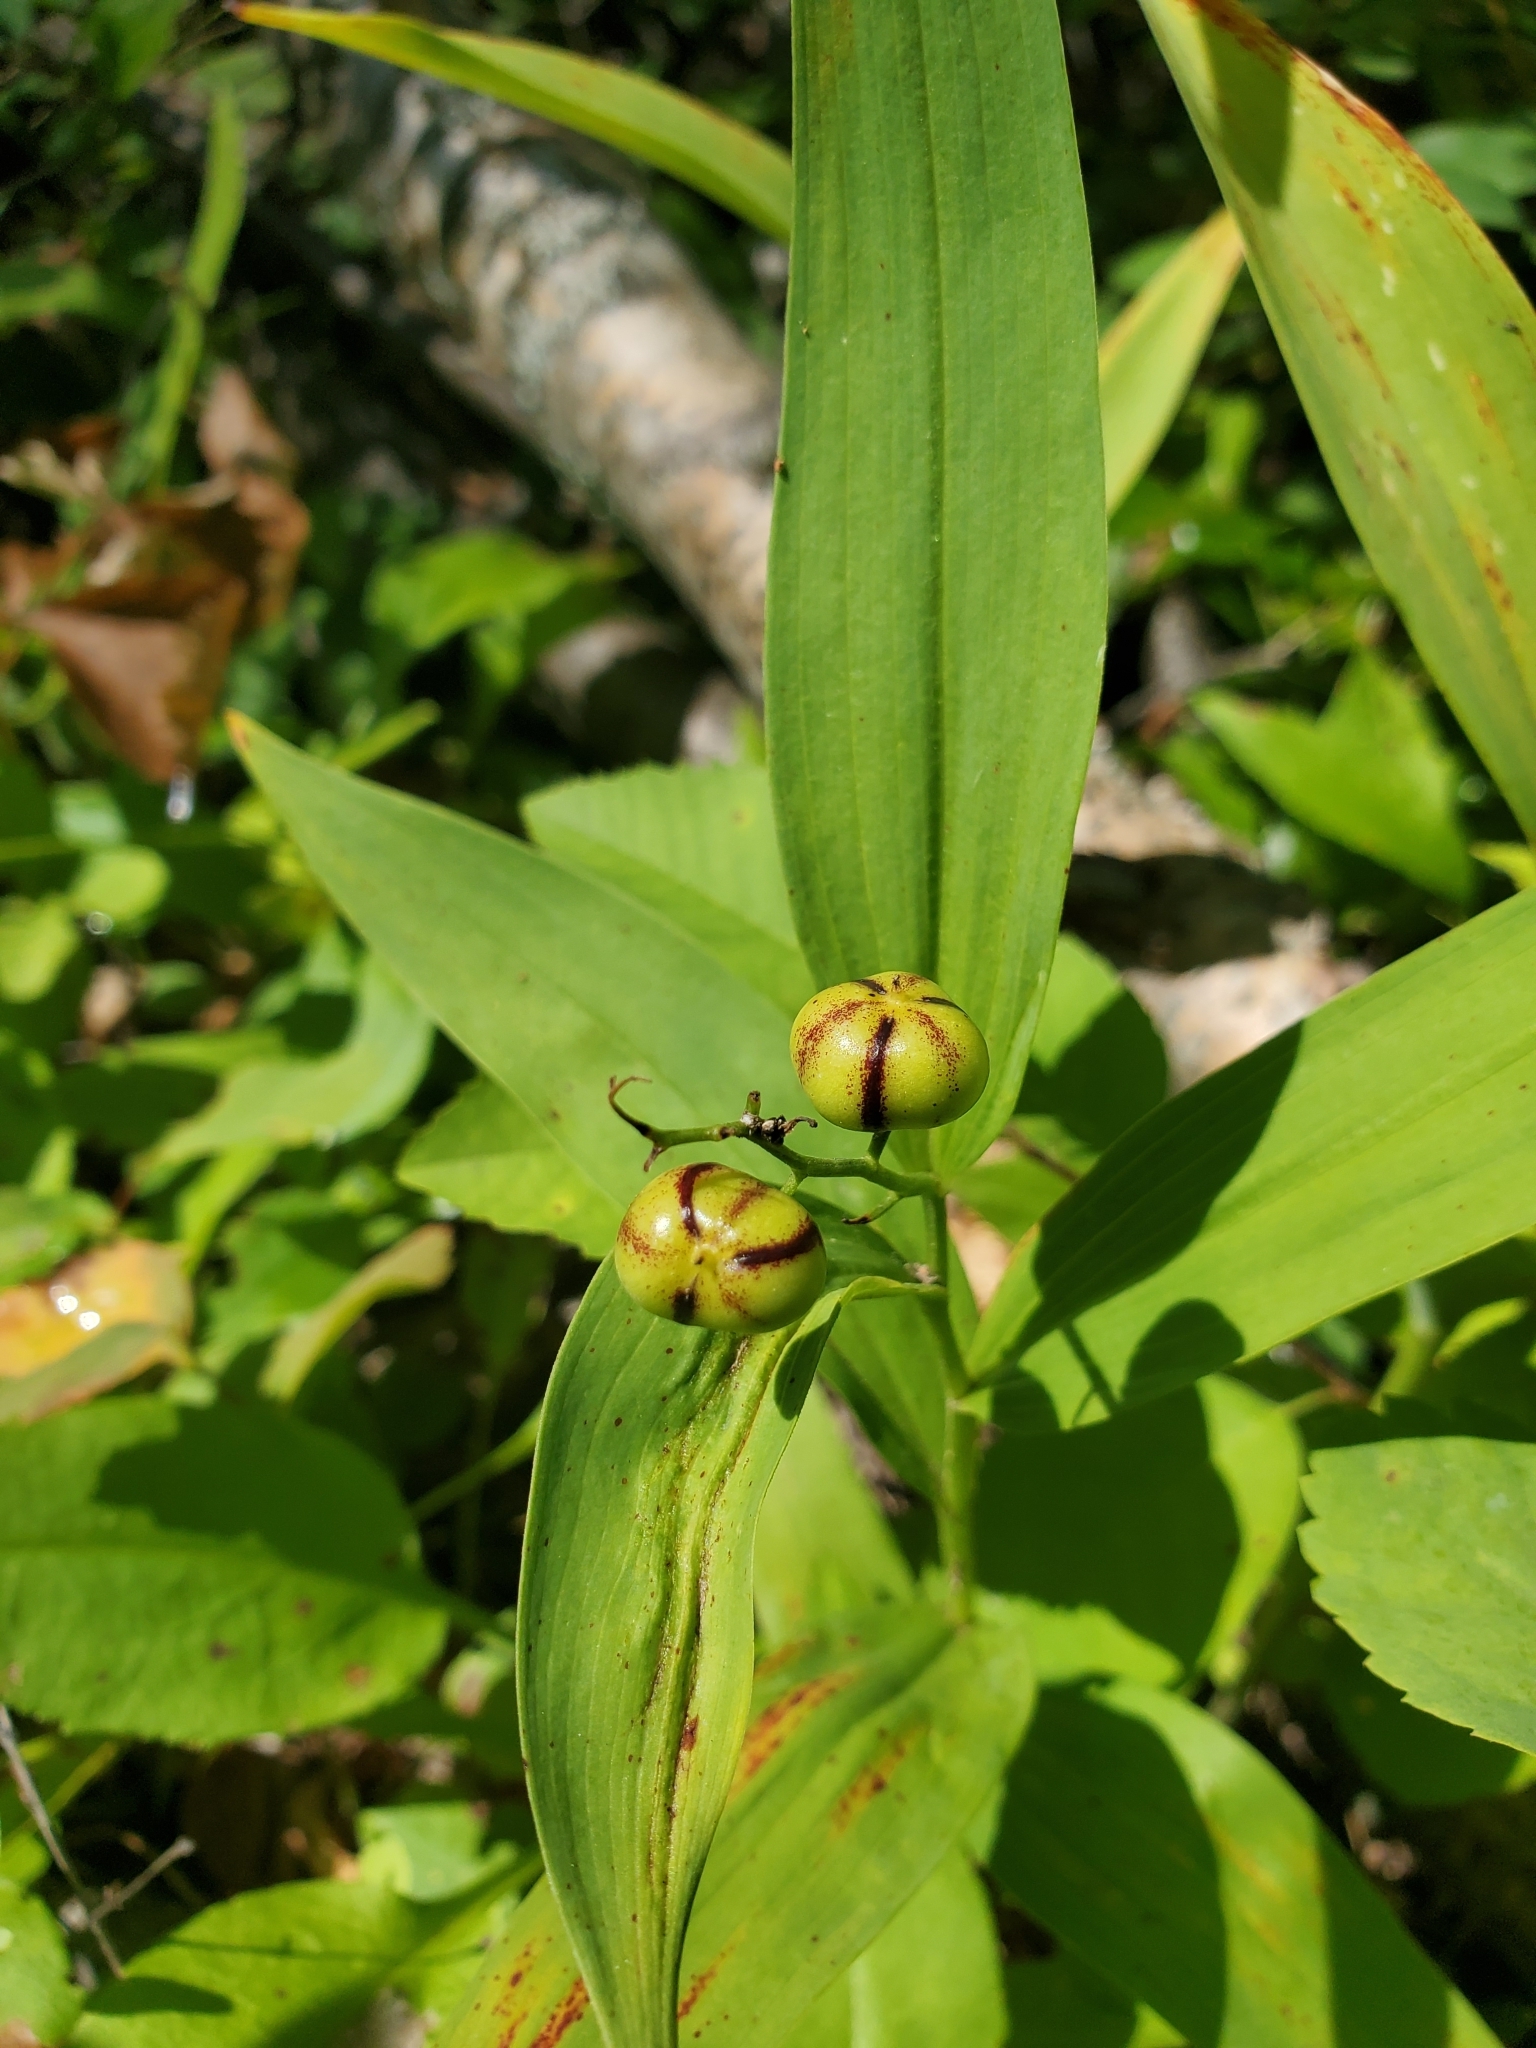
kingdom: Plantae
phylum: Tracheophyta
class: Liliopsida
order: Asparagales
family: Asparagaceae
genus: Maianthemum
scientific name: Maianthemum stellatum
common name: Little false solomon's seal
